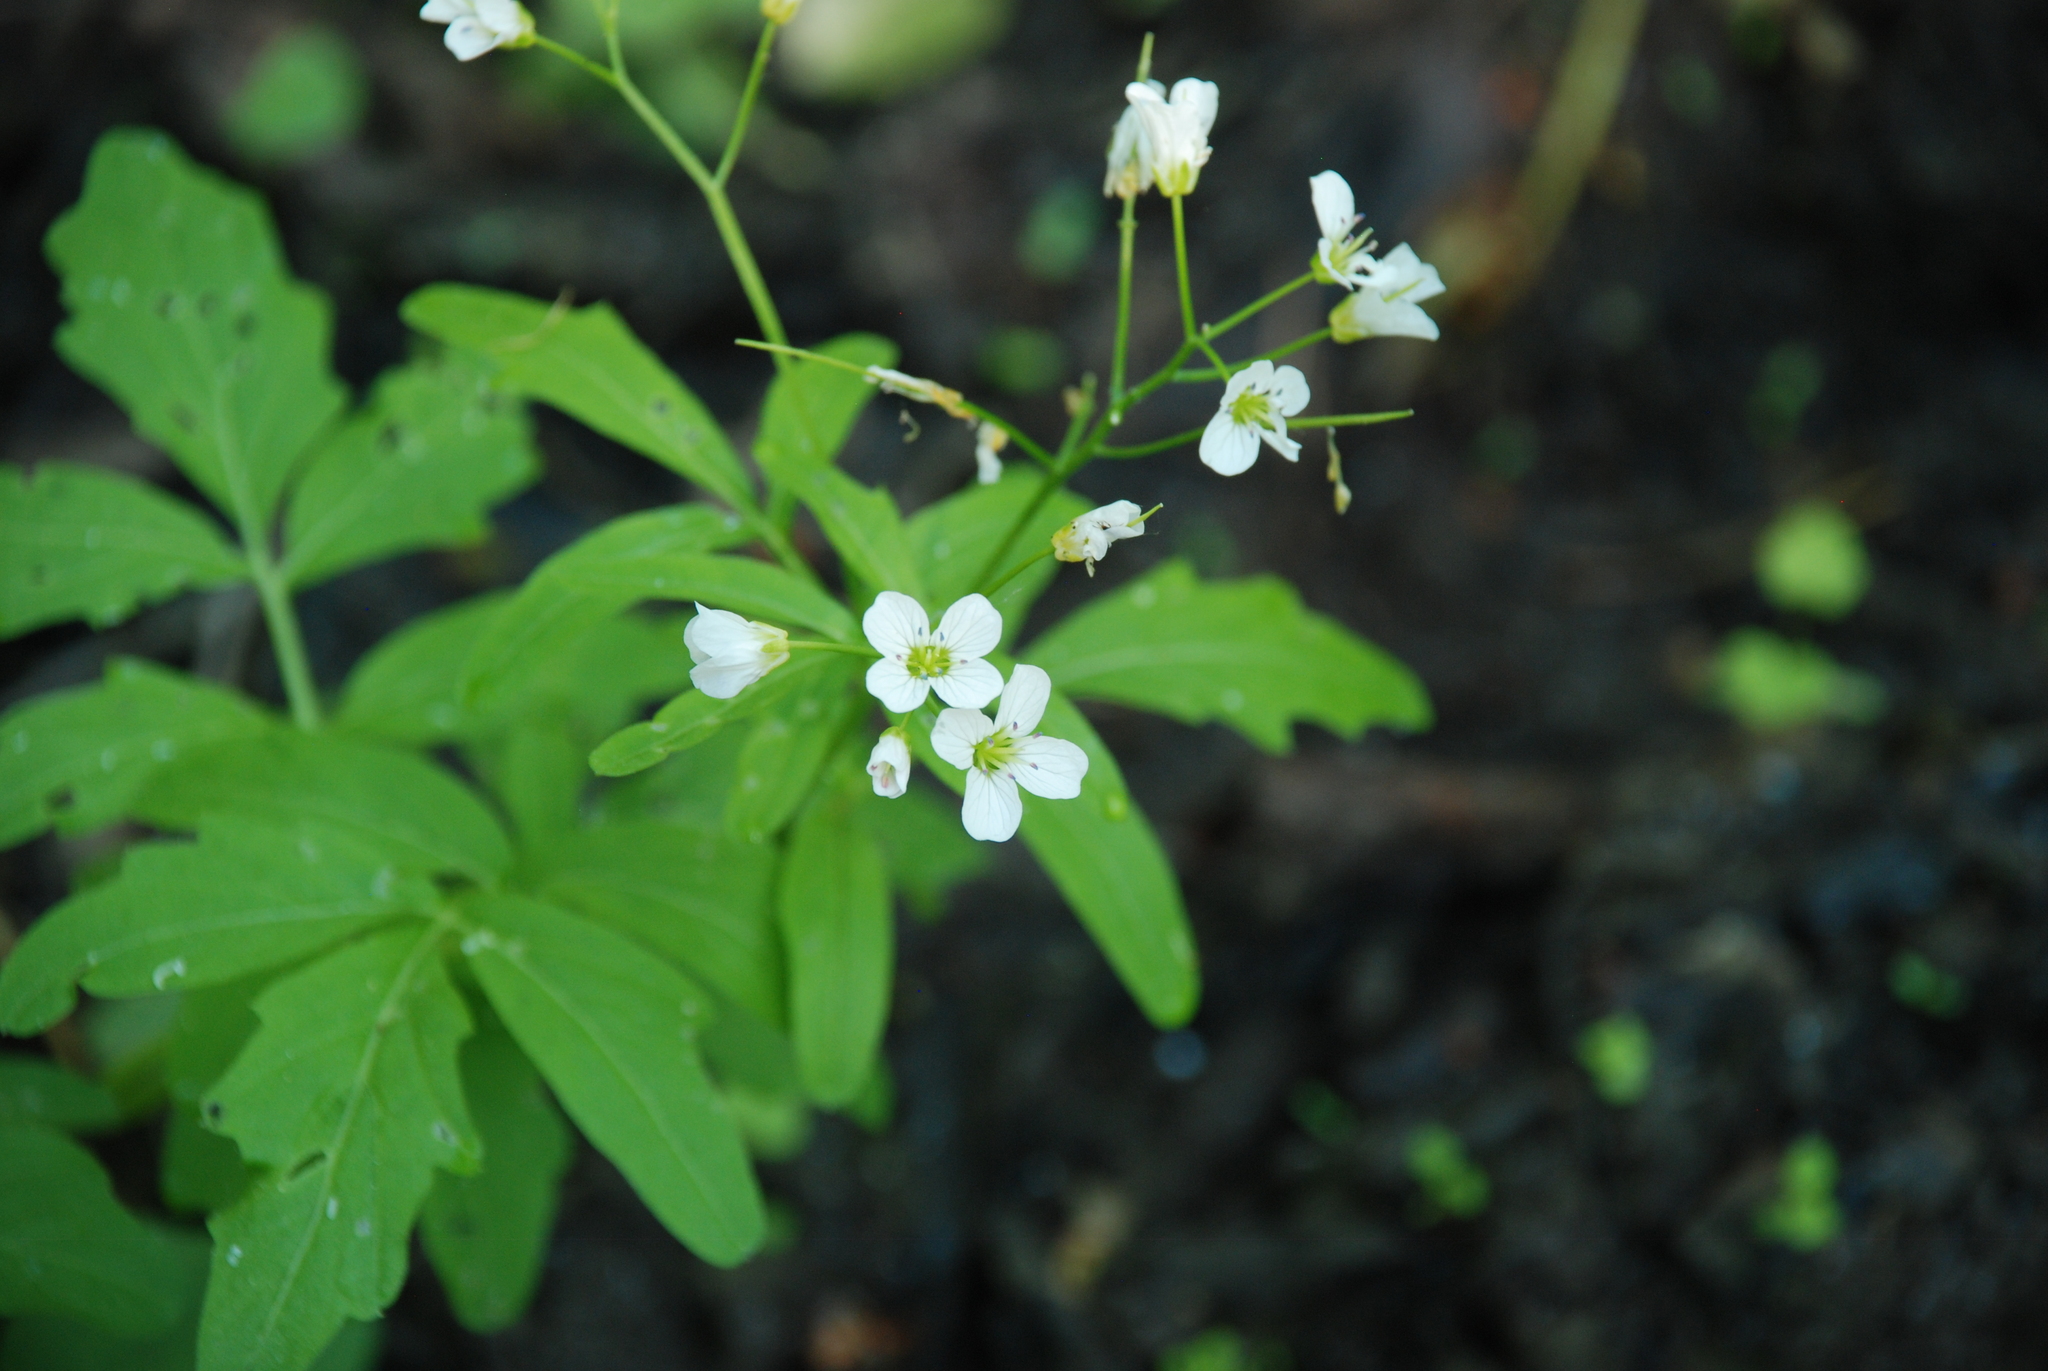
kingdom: Plantae
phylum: Tracheophyta
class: Magnoliopsida
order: Brassicales
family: Brassicaceae
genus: Cardamine
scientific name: Cardamine amara
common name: Large bitter-cress
